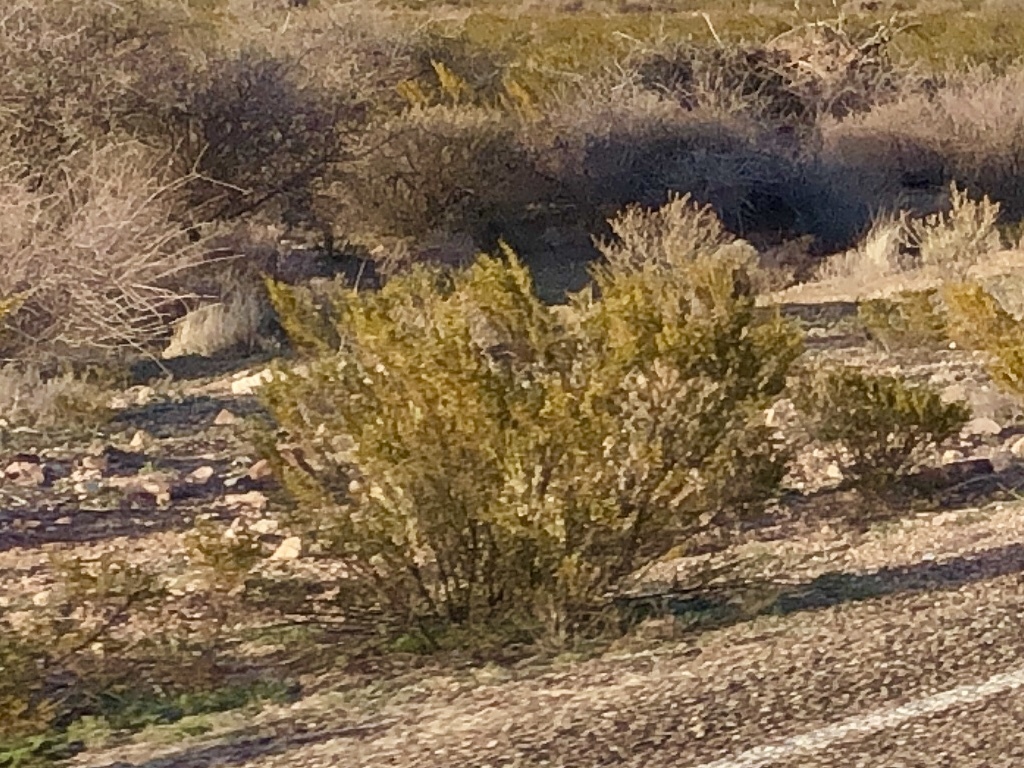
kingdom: Plantae
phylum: Tracheophyta
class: Magnoliopsida
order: Zygophyllales
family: Zygophyllaceae
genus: Larrea
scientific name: Larrea tridentata
